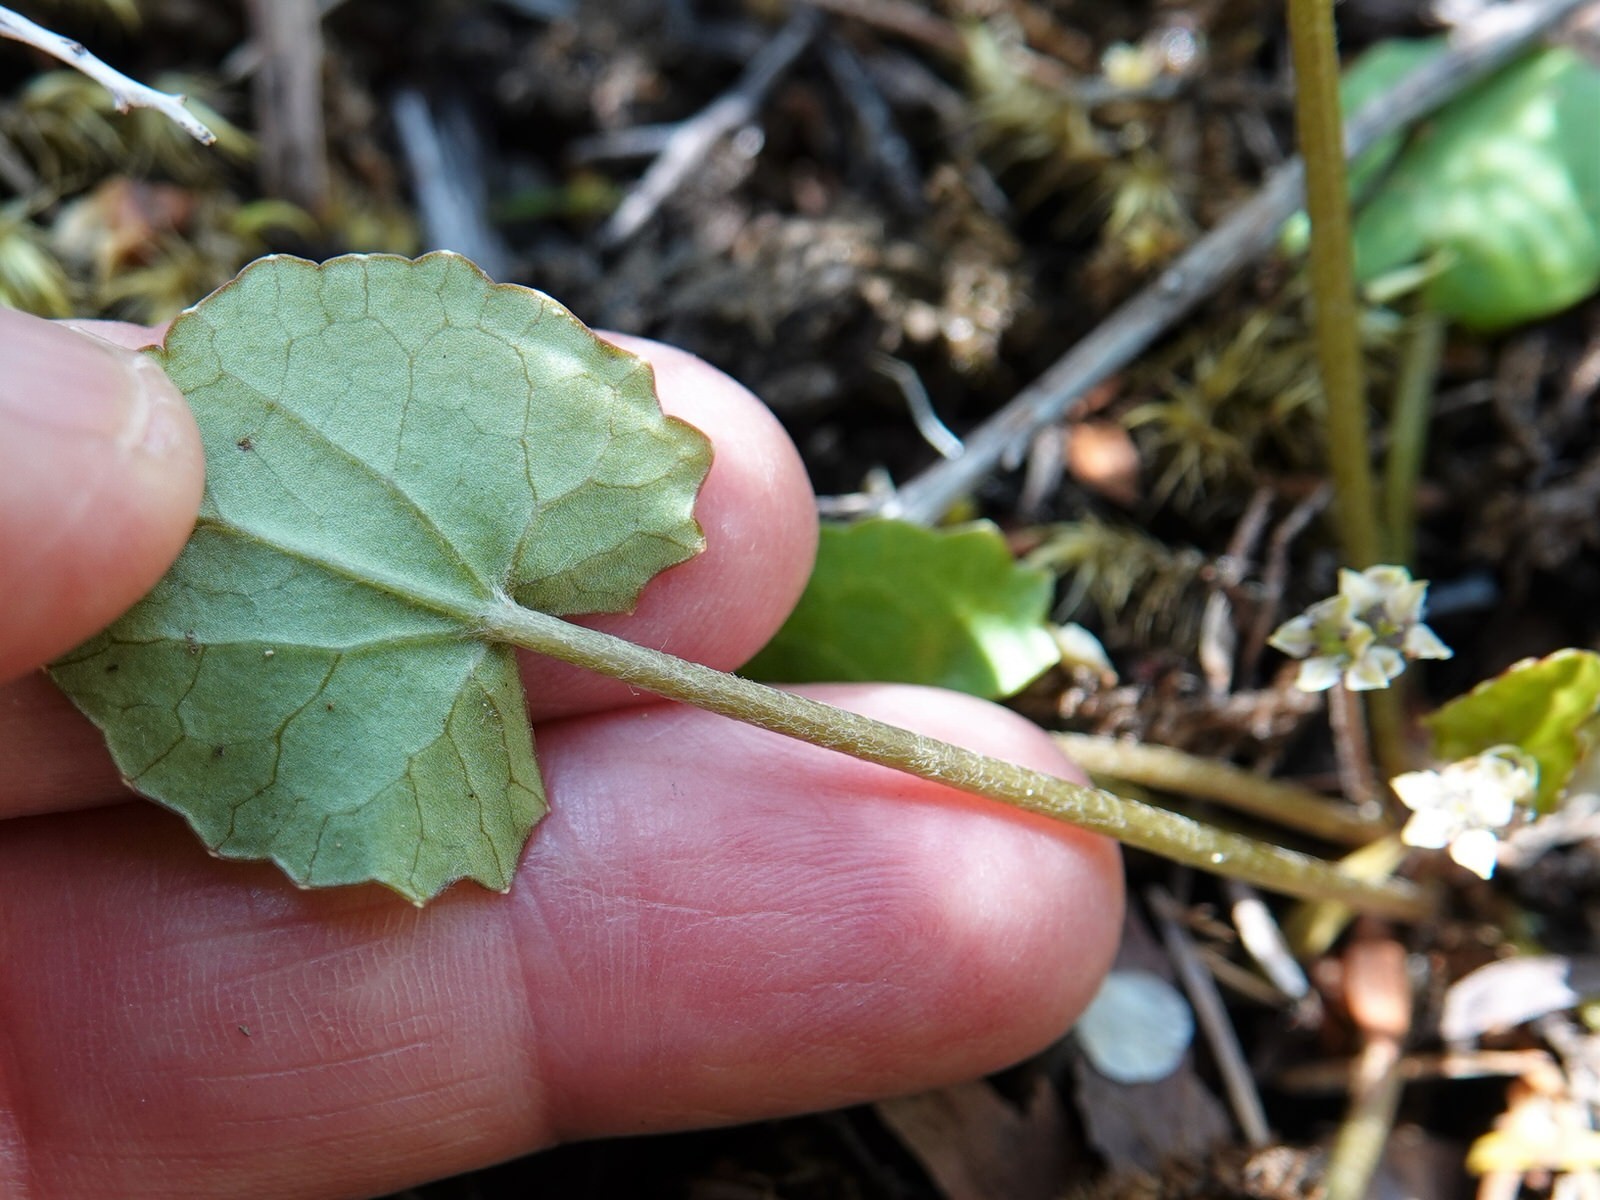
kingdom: Plantae
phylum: Tracheophyta
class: Magnoliopsida
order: Apiales
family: Apiaceae
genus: Centella
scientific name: Centella uniflora
